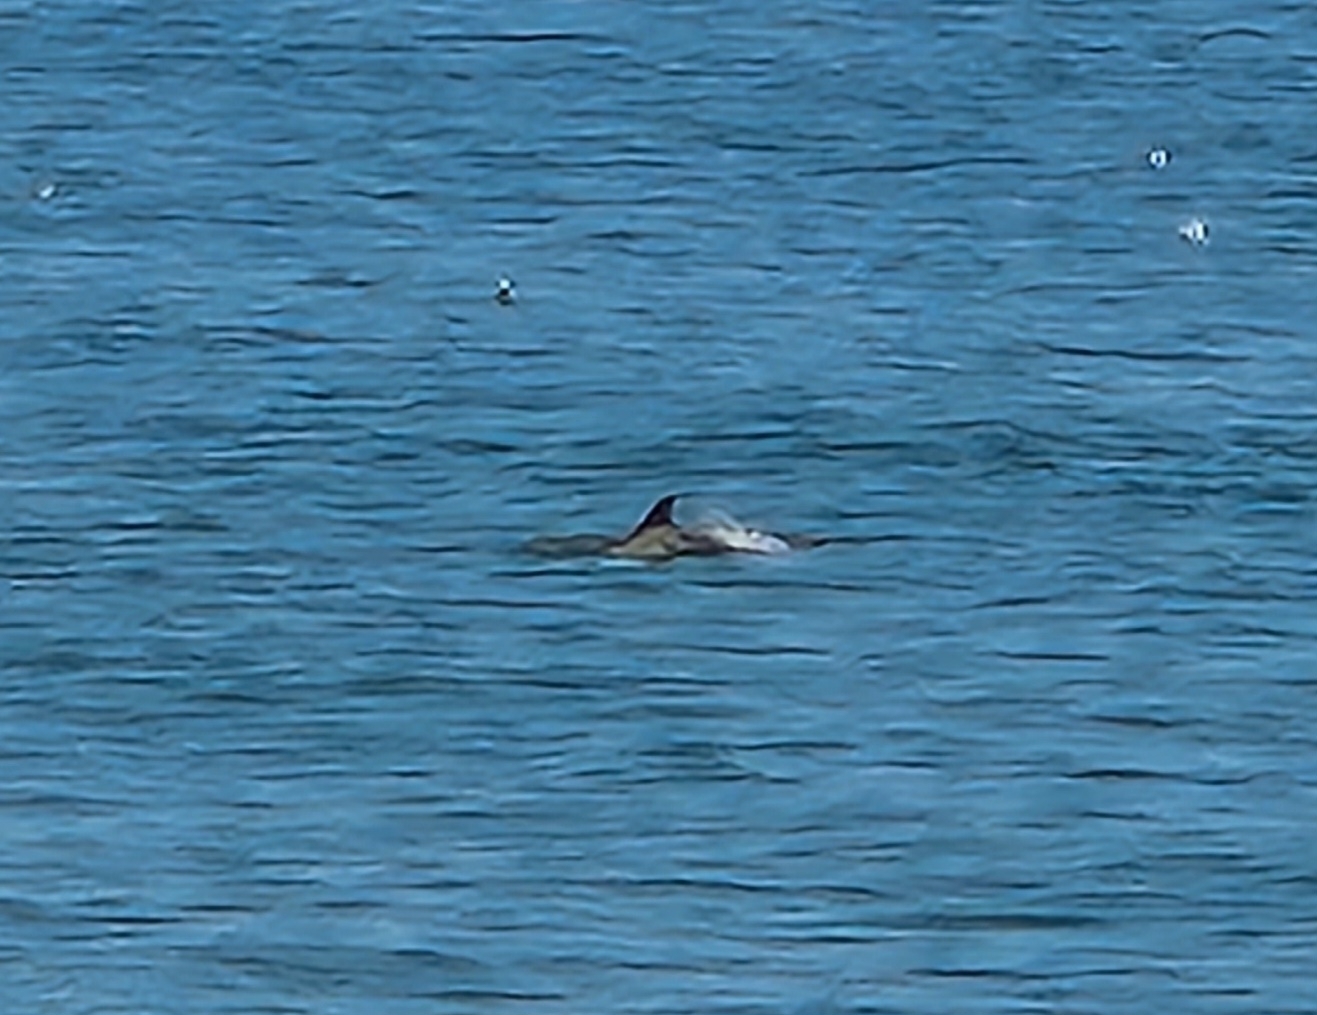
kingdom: Animalia
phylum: Chordata
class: Mammalia
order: Cetacea
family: Delphinidae
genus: Tursiops
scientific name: Tursiops truncatus
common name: Bottlenose dolphin
